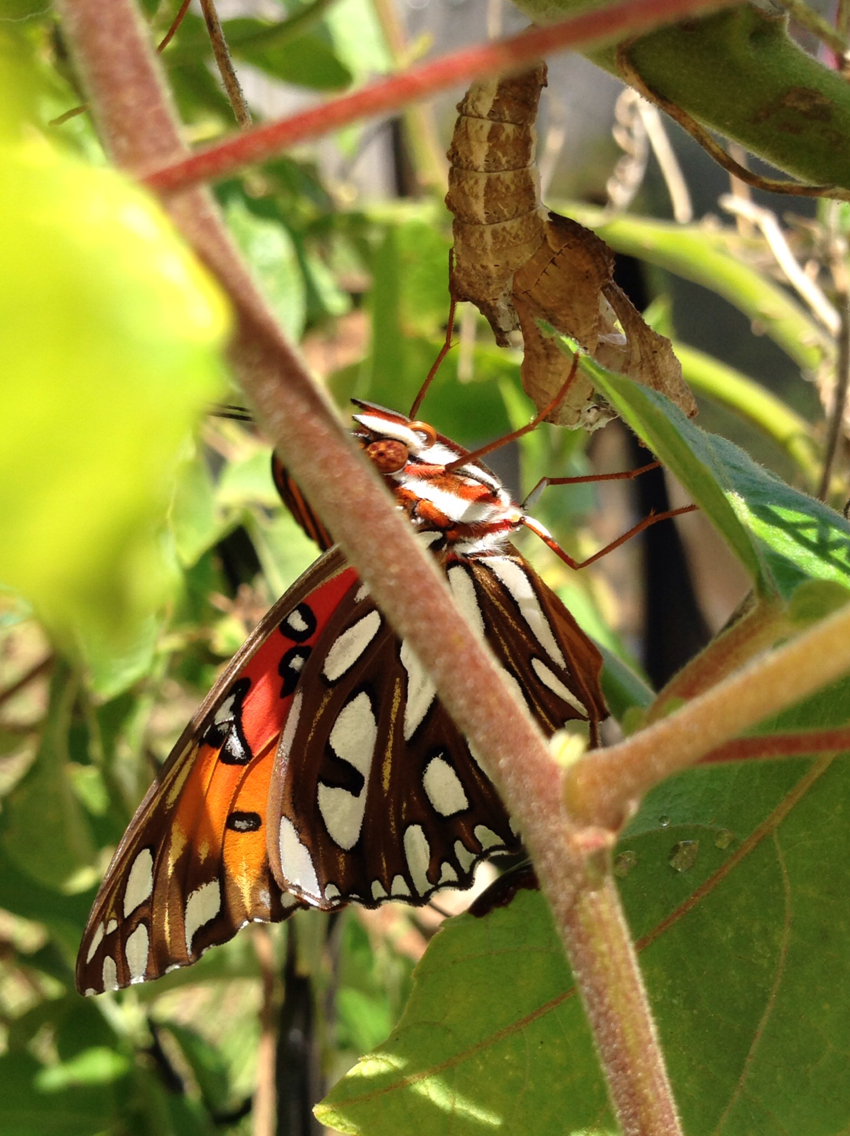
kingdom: Animalia
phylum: Arthropoda
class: Insecta
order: Lepidoptera
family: Nymphalidae
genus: Dione
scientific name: Dione vanillae
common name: Gulf fritillary
